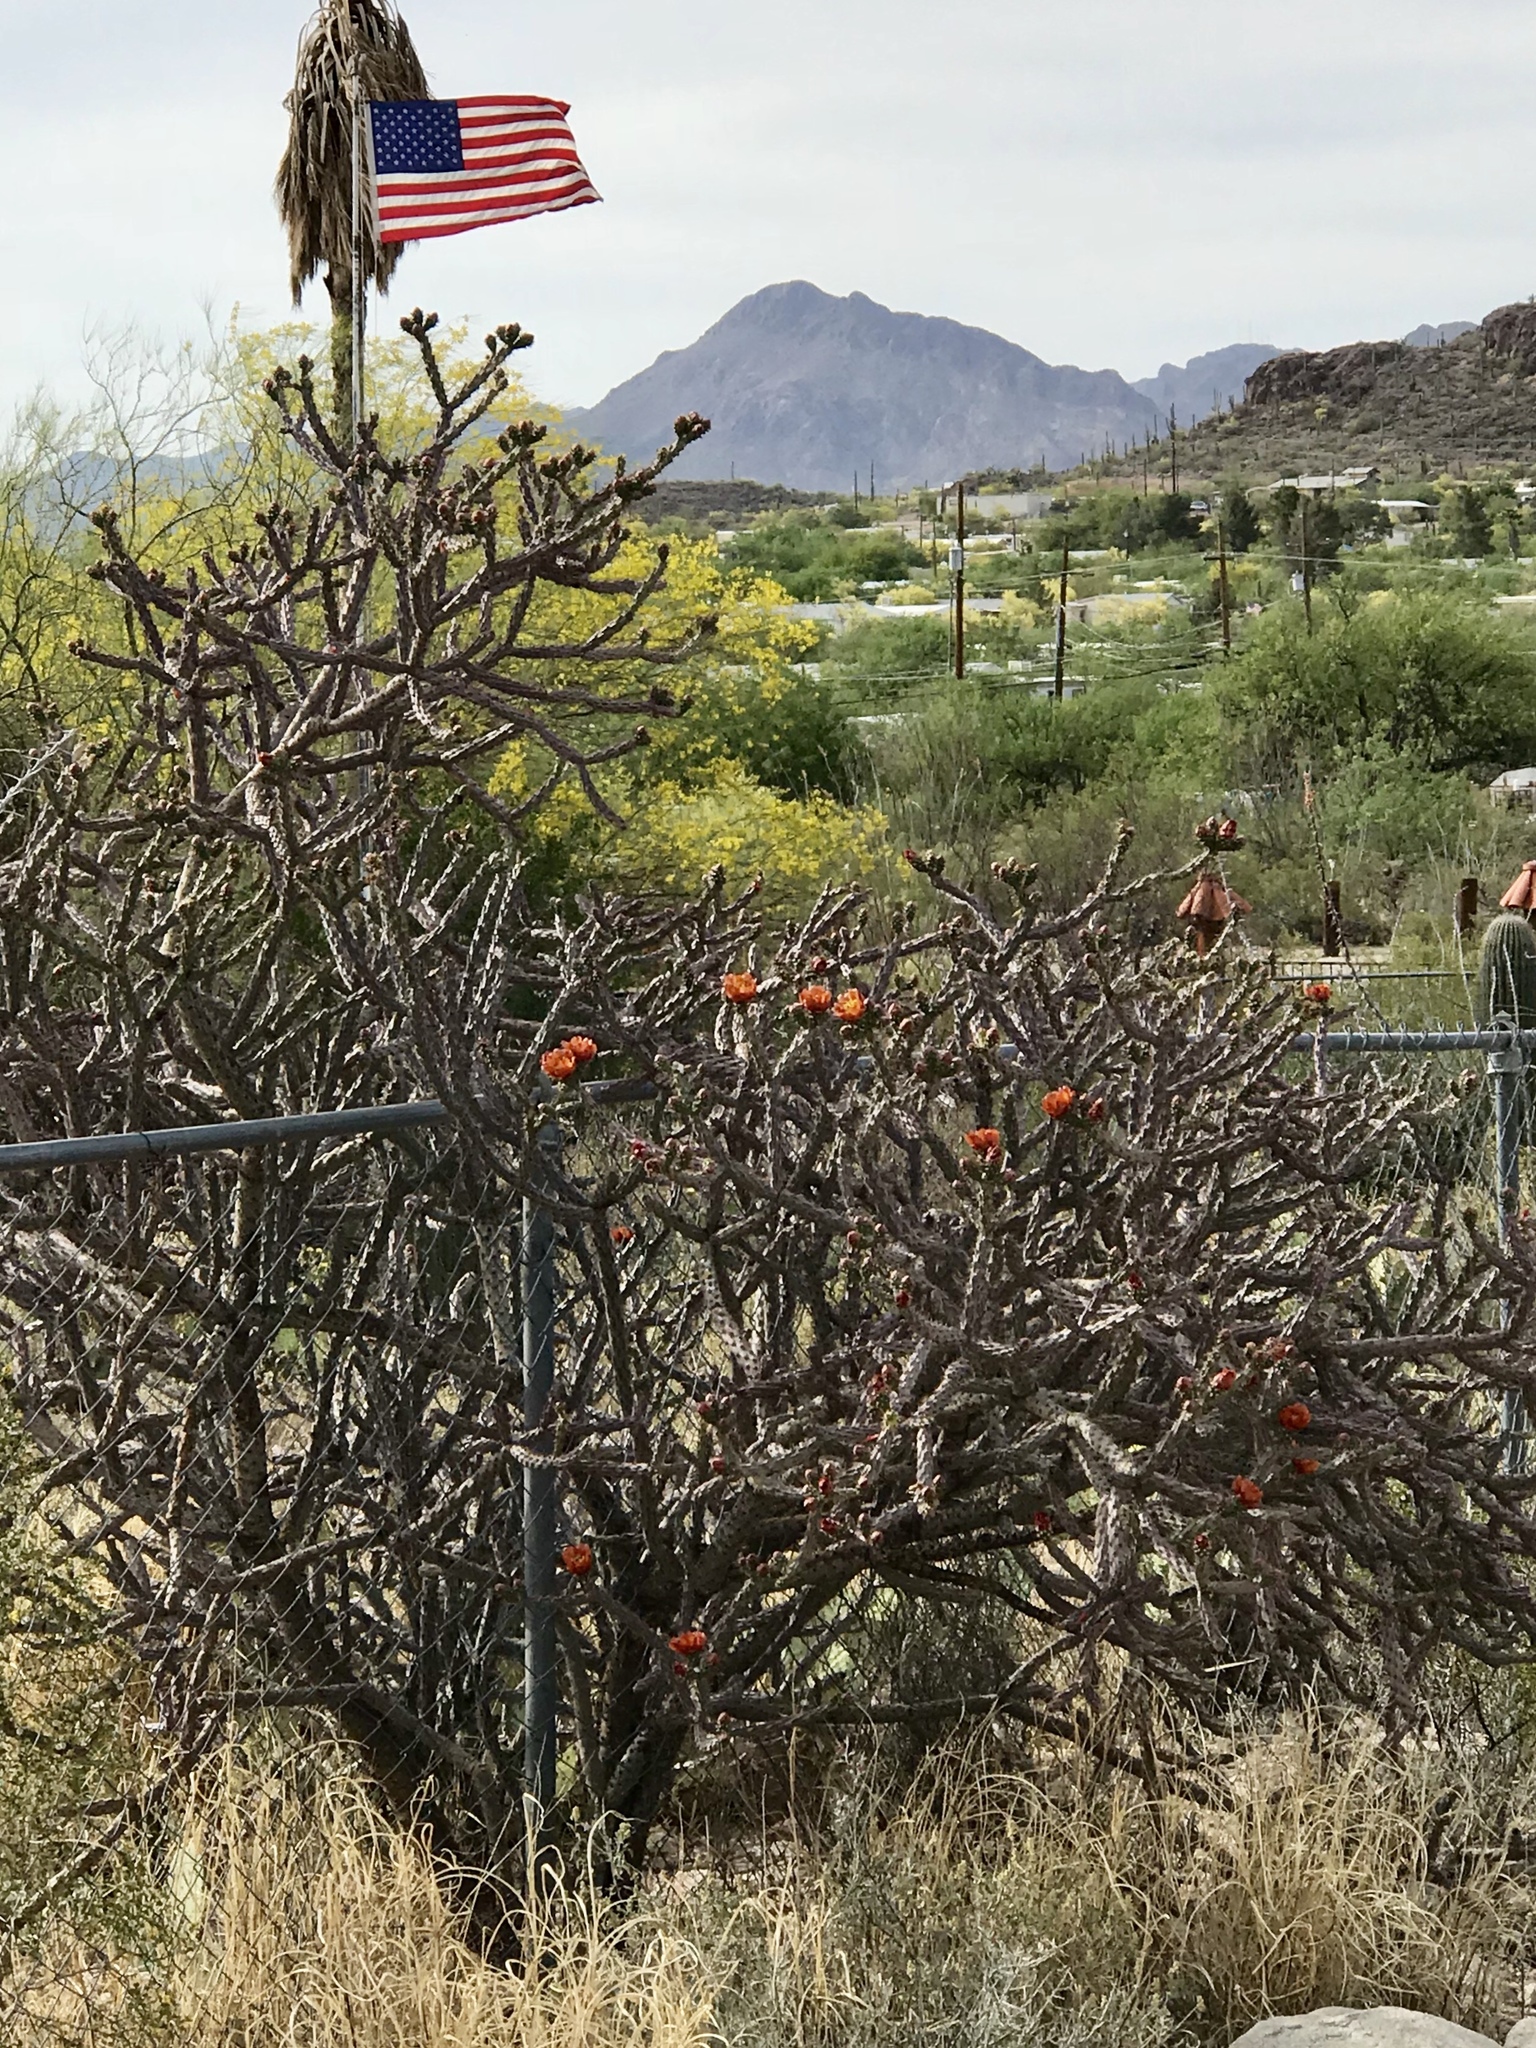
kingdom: Plantae
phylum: Tracheophyta
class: Magnoliopsida
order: Caryophyllales
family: Cactaceae
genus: Cylindropuntia
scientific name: Cylindropuntia thurberi
